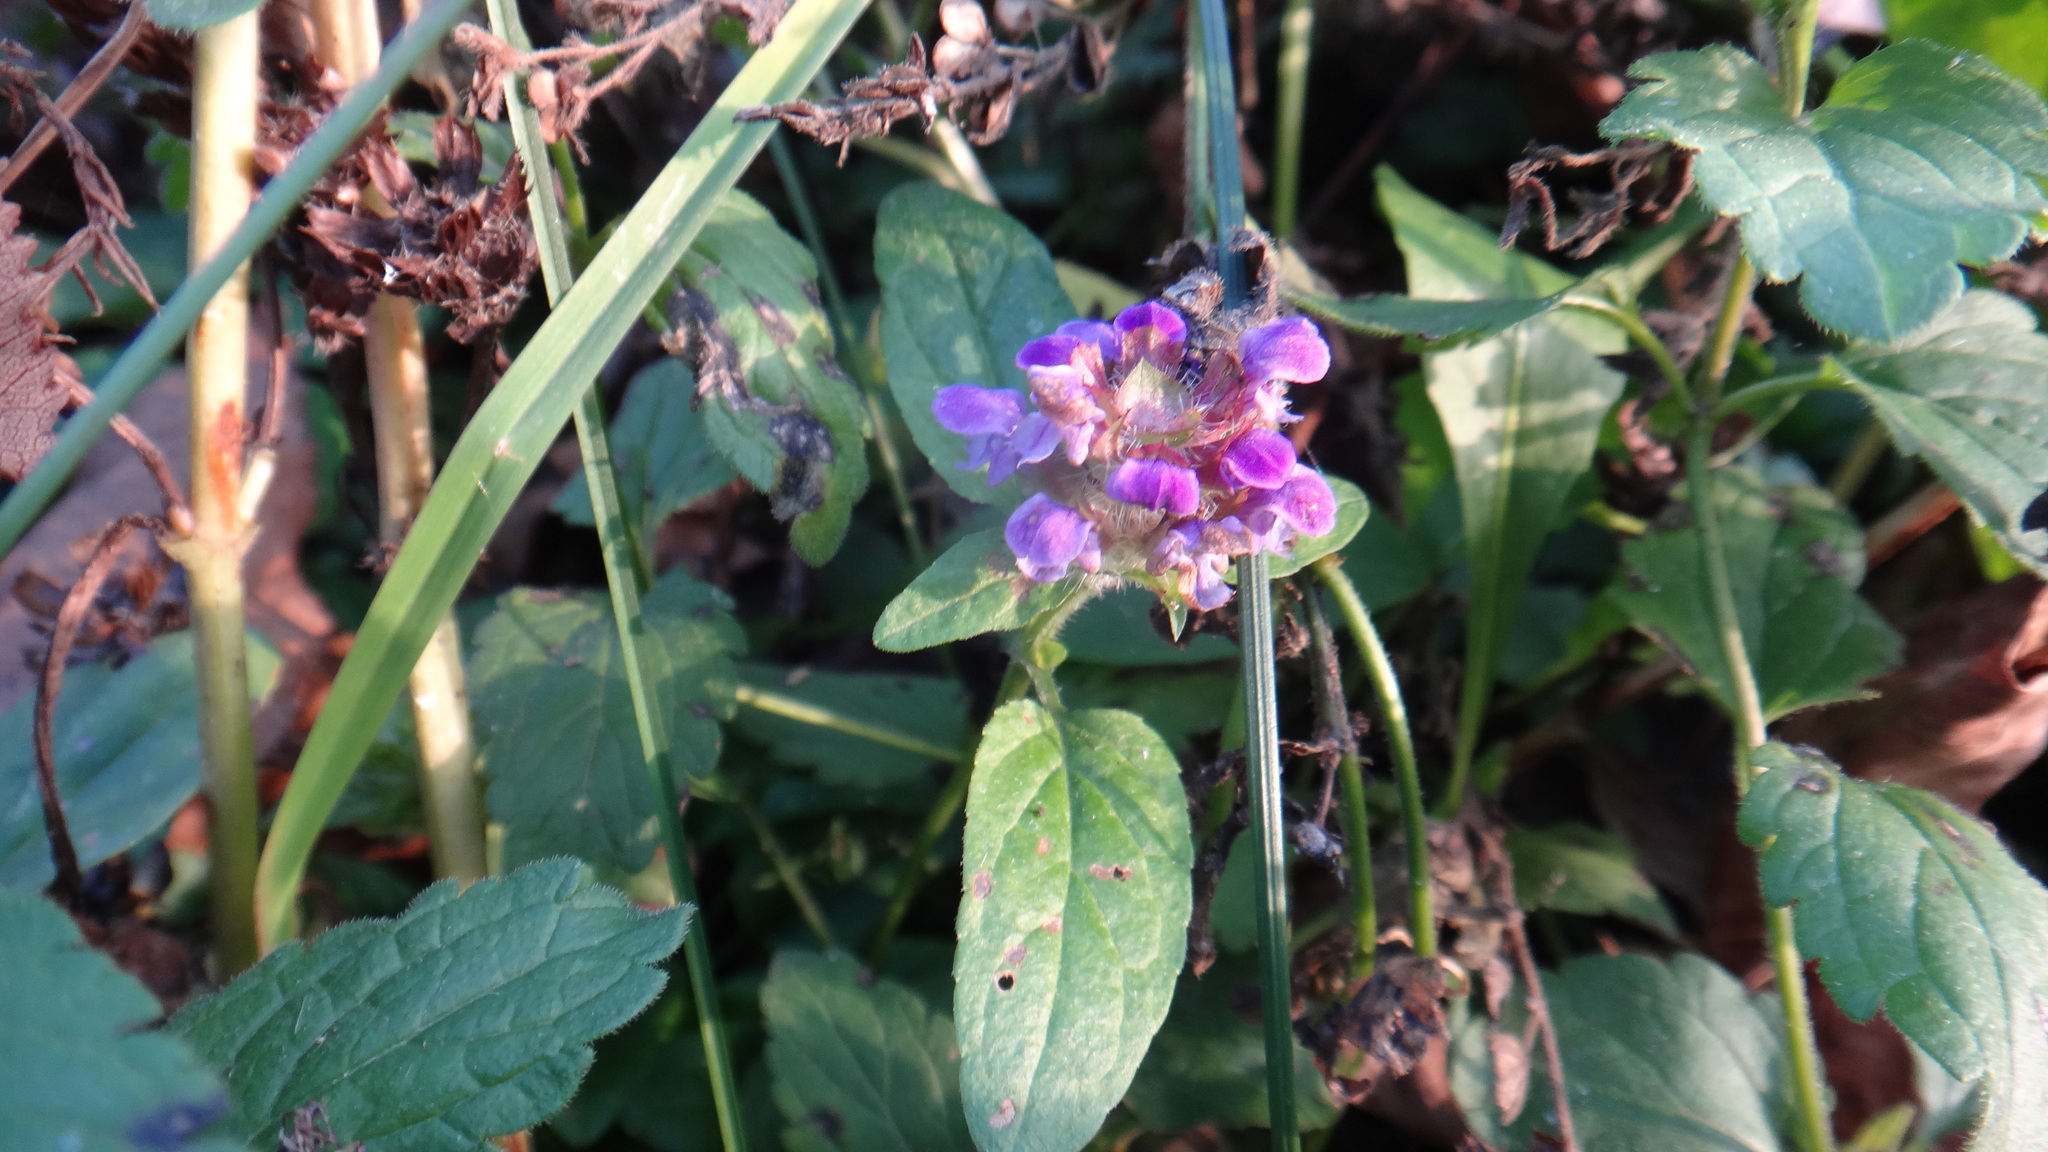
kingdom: Plantae
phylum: Tracheophyta
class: Magnoliopsida
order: Lamiales
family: Lamiaceae
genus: Prunella
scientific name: Prunella vulgaris
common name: Heal-all
